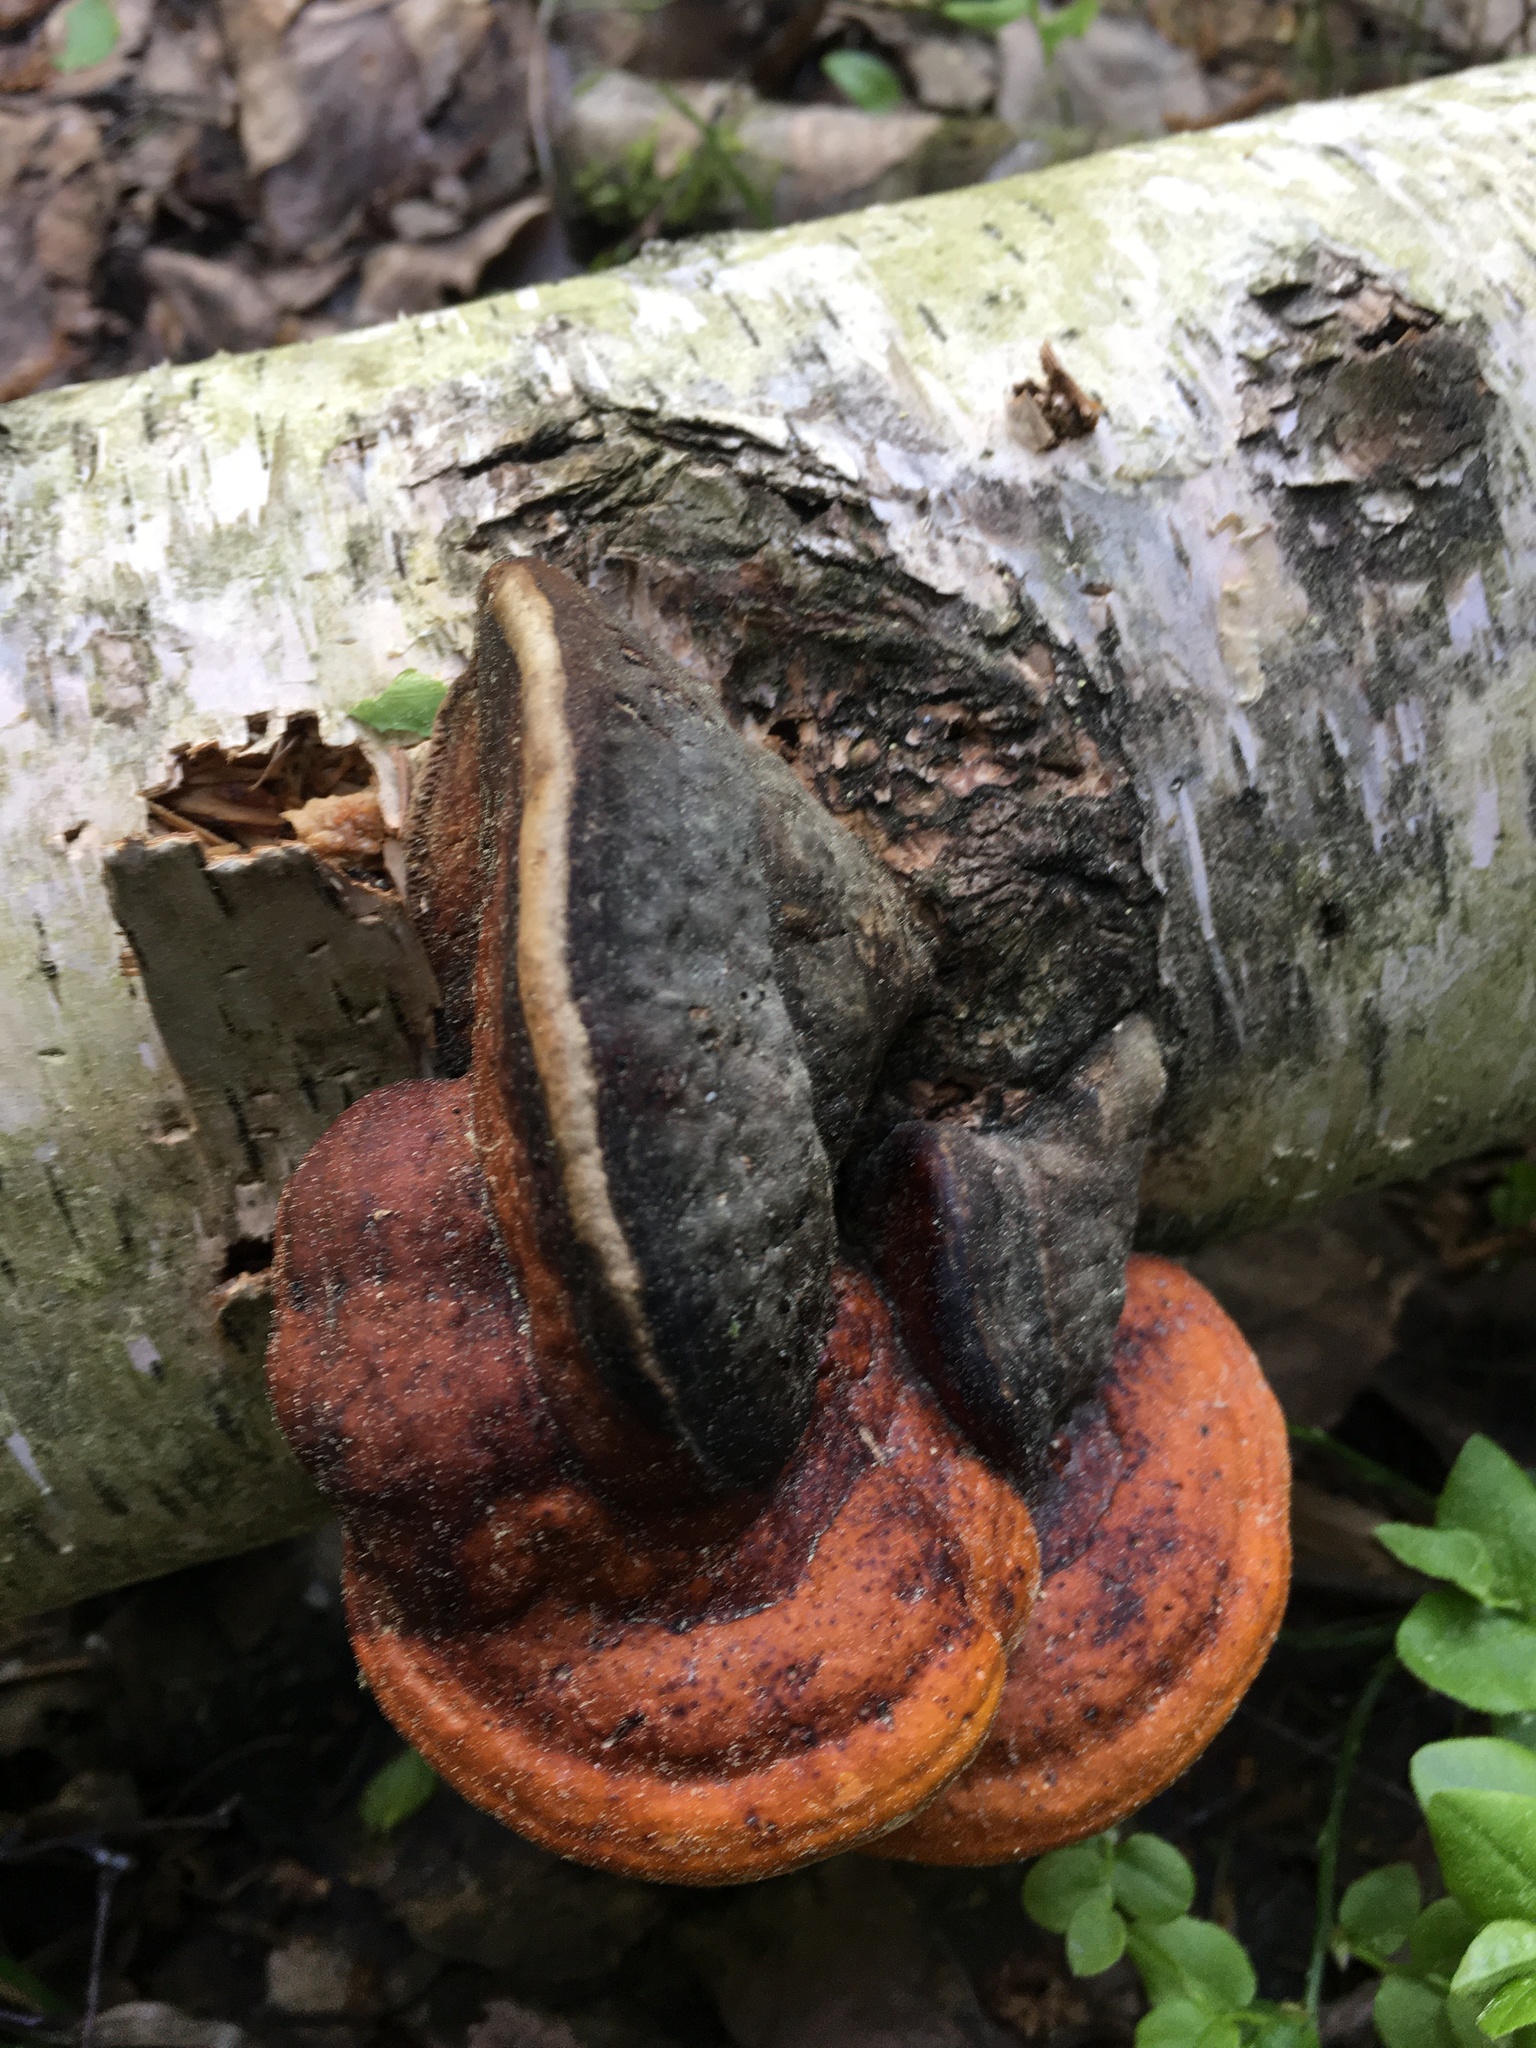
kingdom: Fungi
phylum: Basidiomycota
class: Agaricomycetes
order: Polyporales
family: Fomitopsidaceae
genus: Fomitopsis
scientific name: Fomitopsis pinicola
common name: Red-belted bracket
